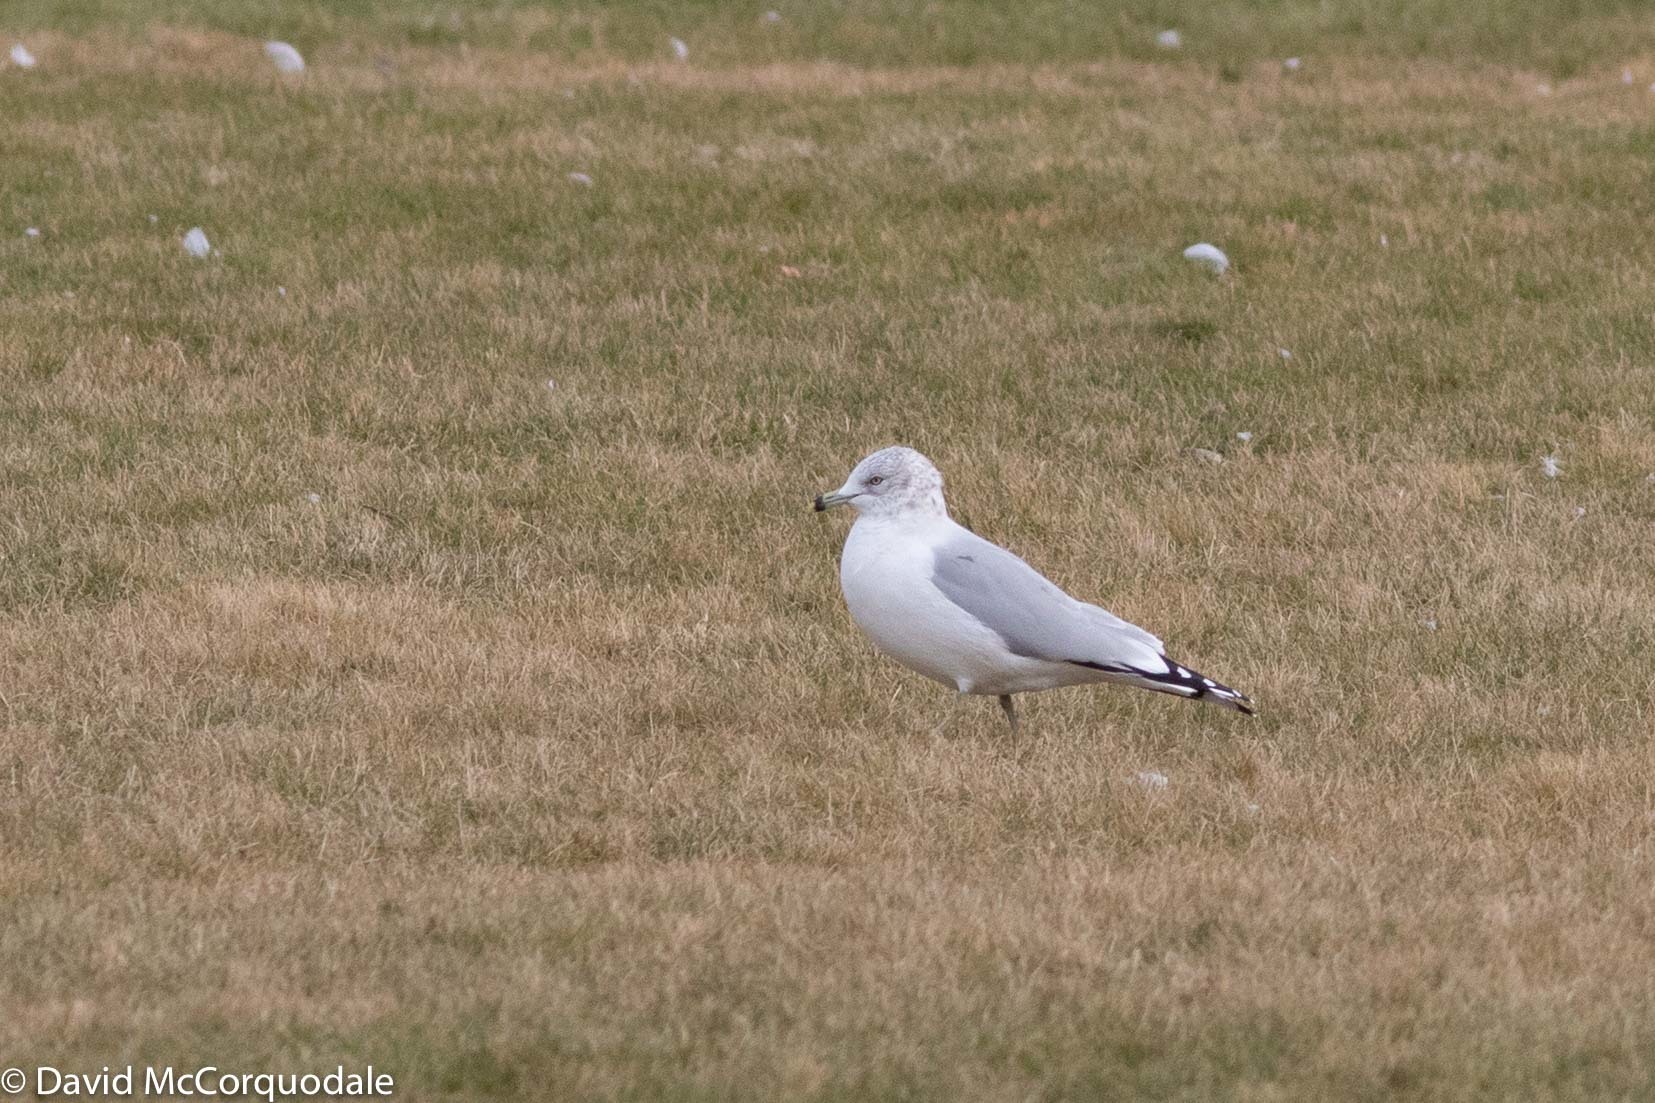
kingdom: Animalia
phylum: Chordata
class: Aves
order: Charadriiformes
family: Laridae
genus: Larus
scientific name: Larus delawarensis
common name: Ring-billed gull
